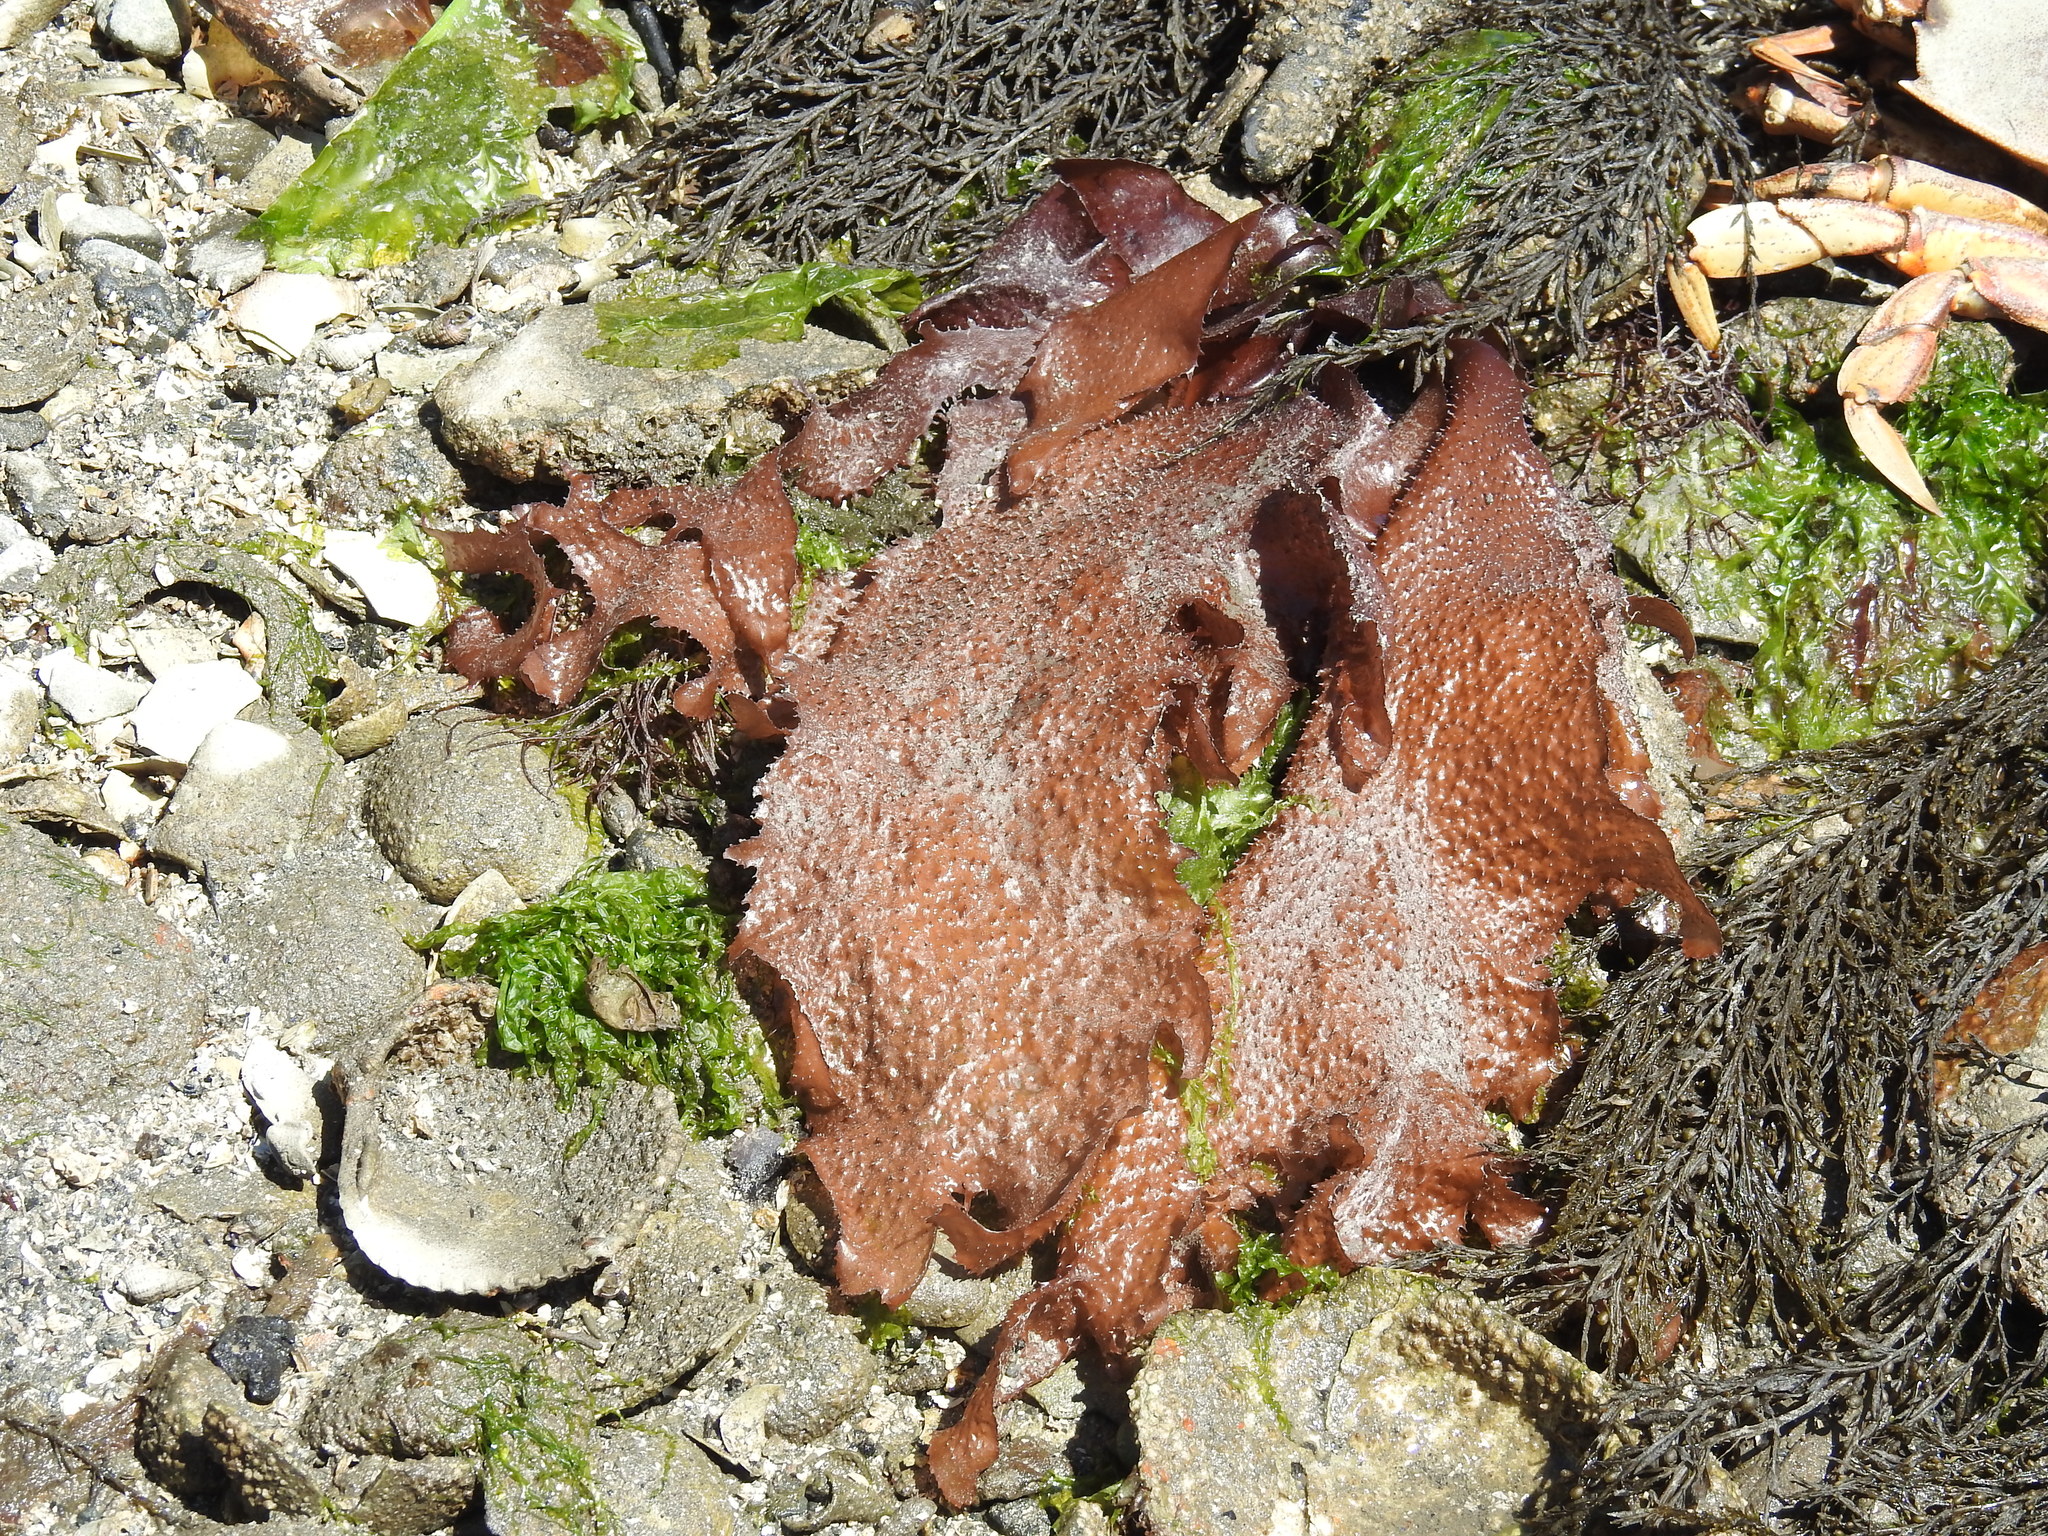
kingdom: Plantae
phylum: Rhodophyta
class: Florideophyceae
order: Gigartinales
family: Gigartinaceae
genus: Chondracanthus
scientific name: Chondracanthus exasperatus
